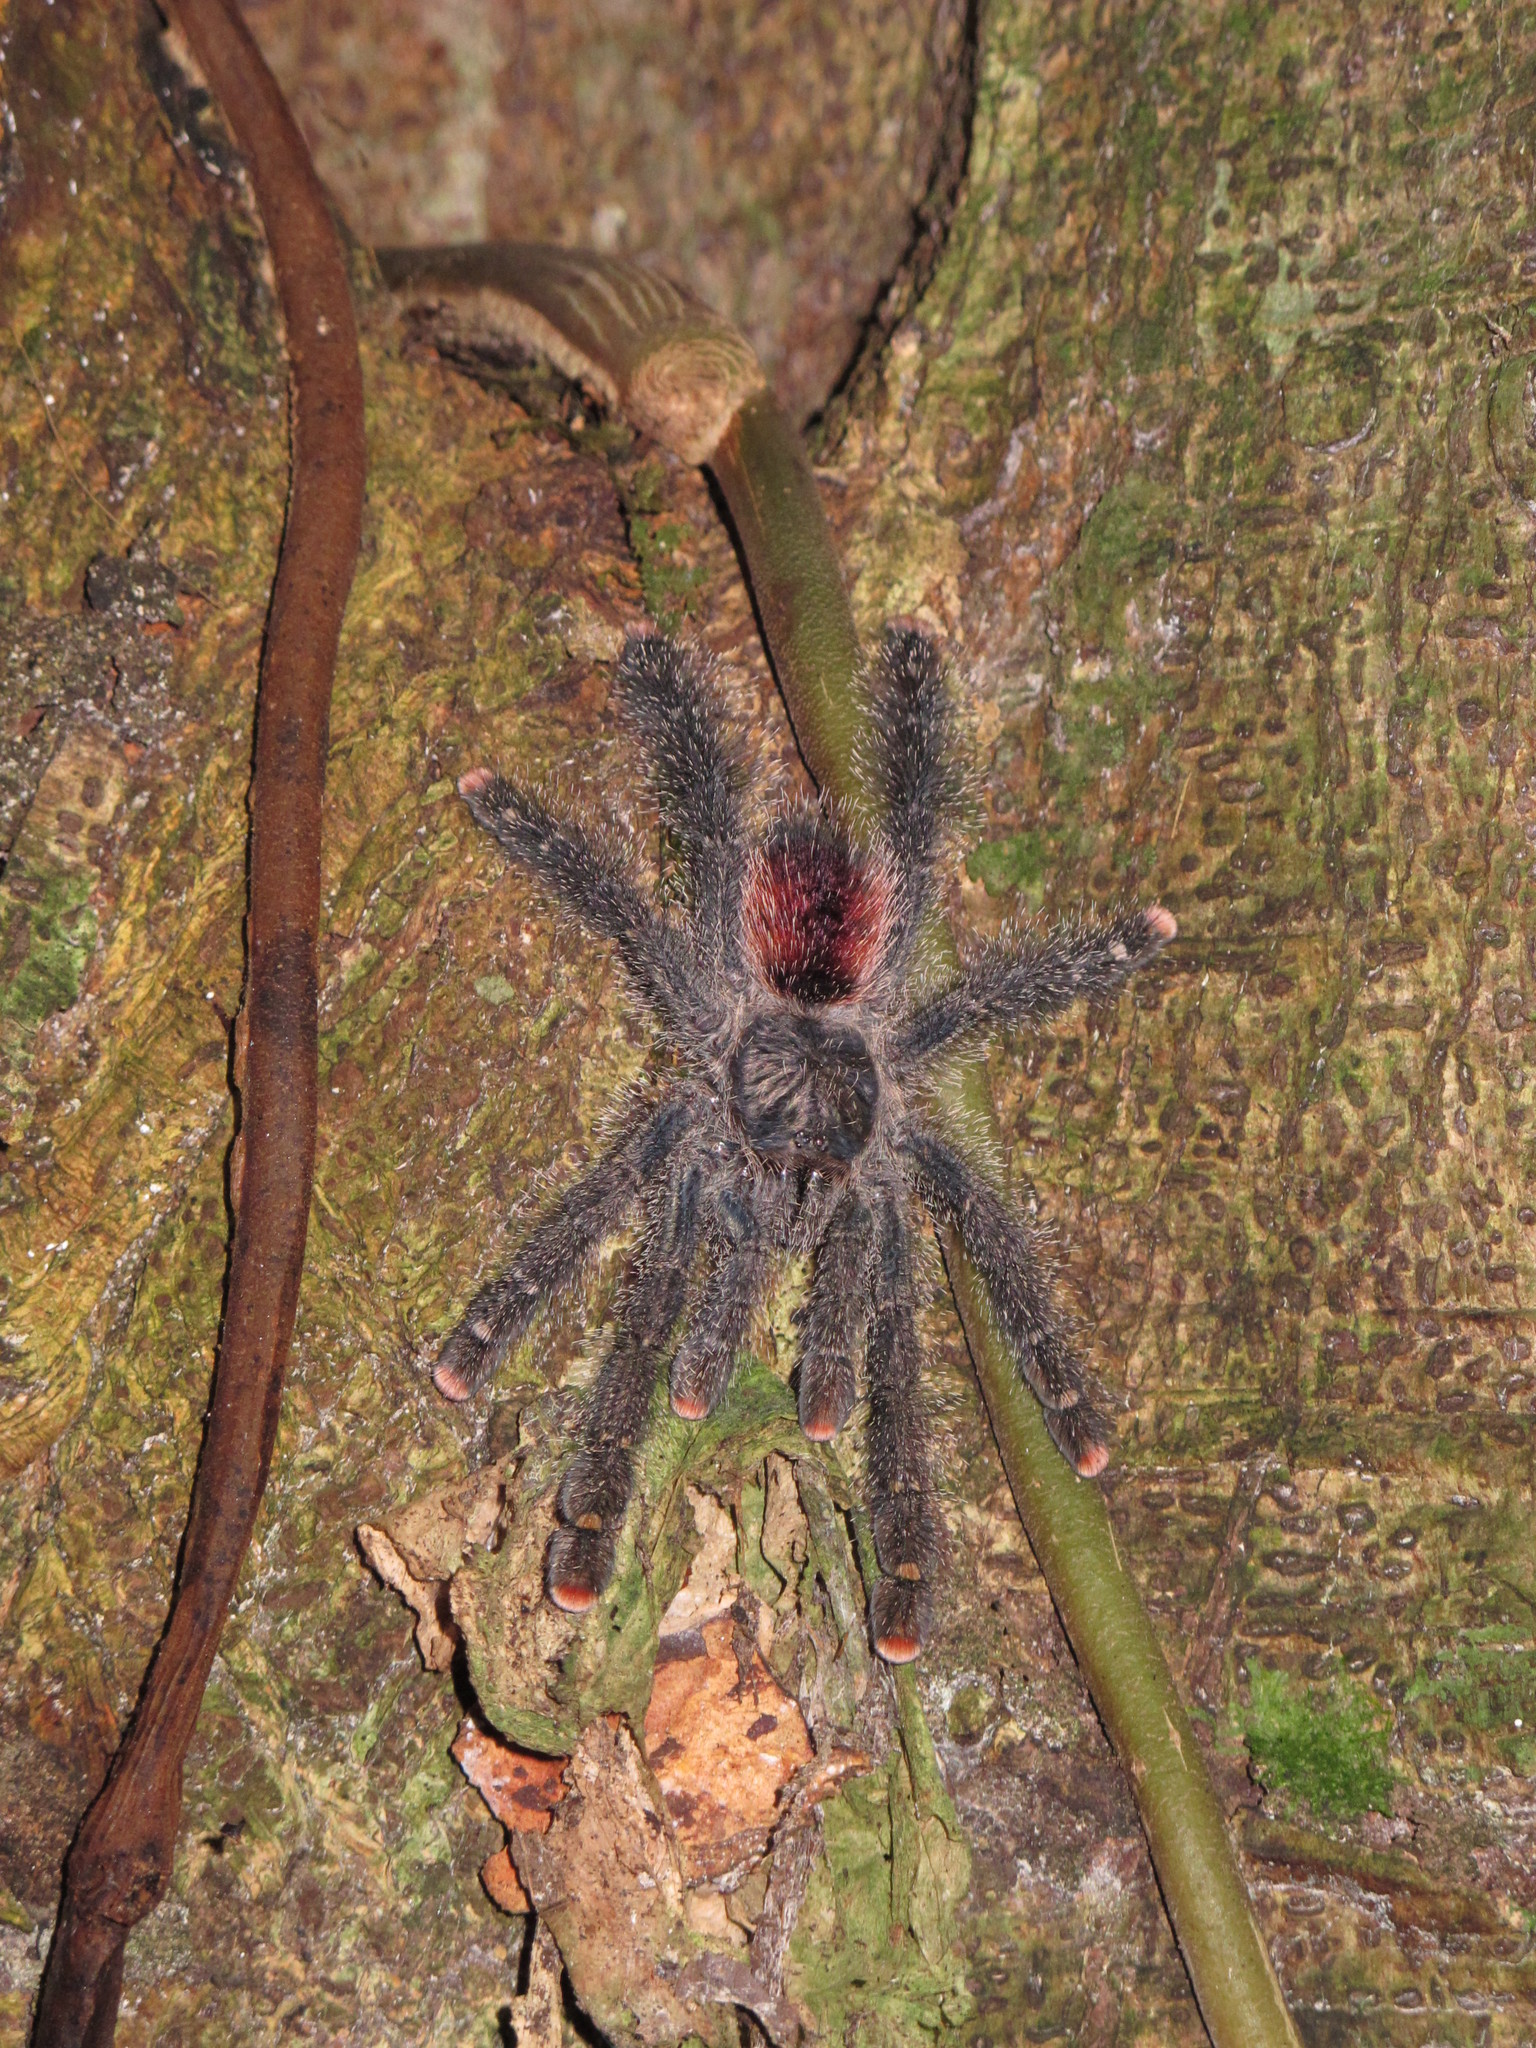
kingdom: Animalia
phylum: Arthropoda
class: Arachnida
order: Araneae
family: Theraphosidae
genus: Avicularia
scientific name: Avicularia juruensis
